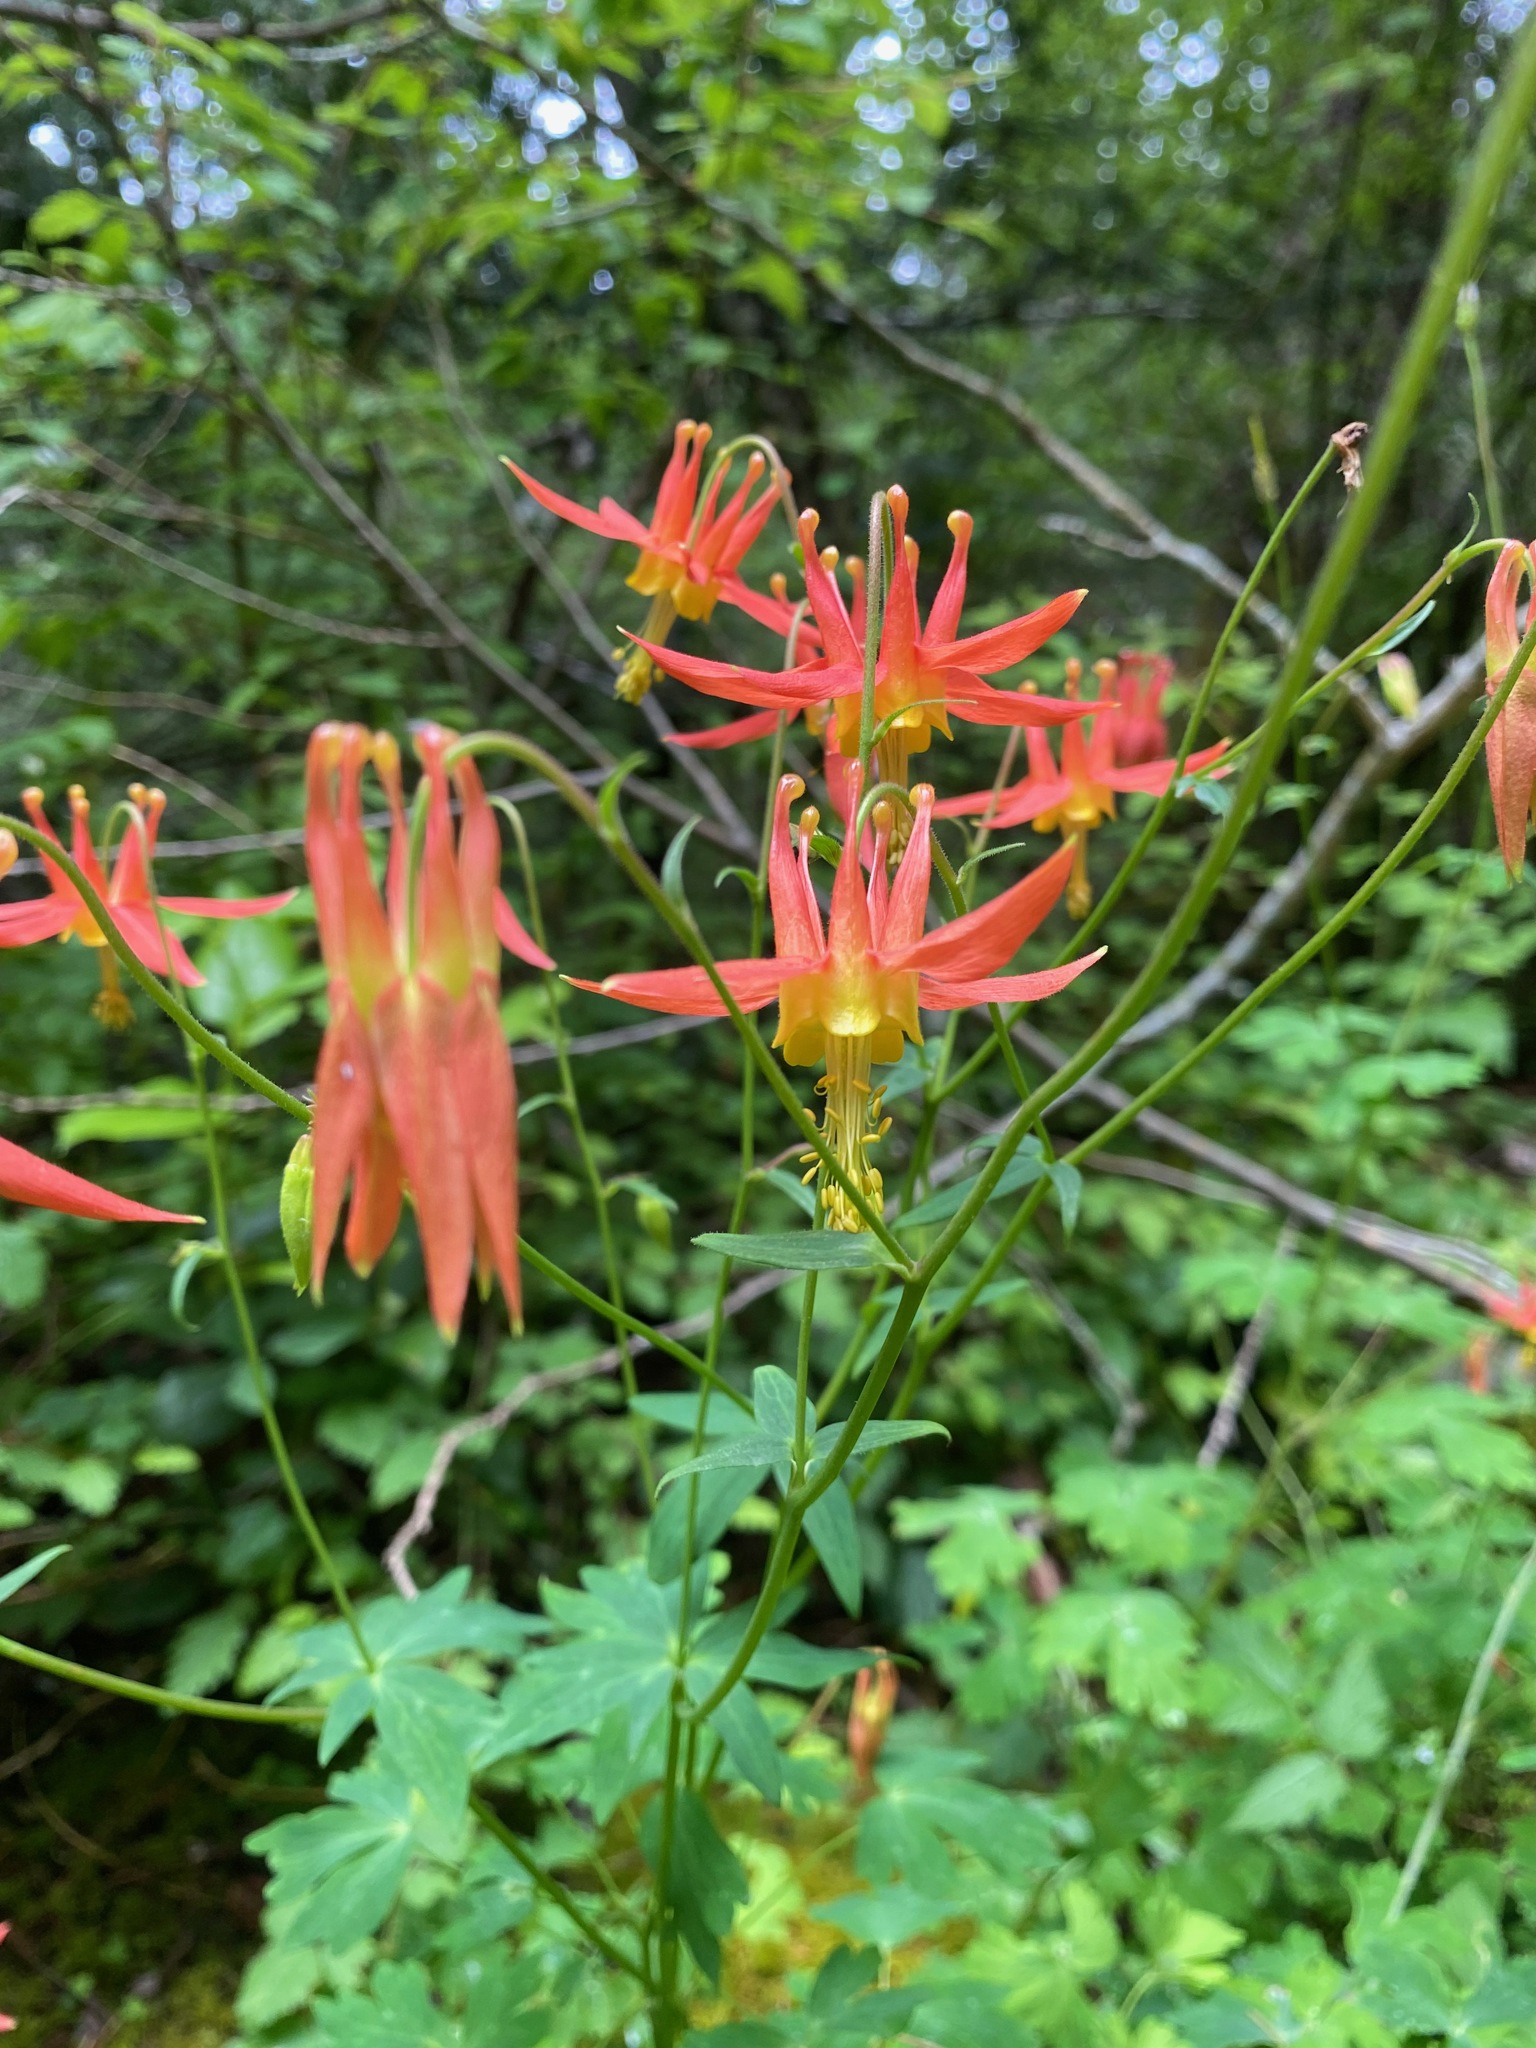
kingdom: Plantae
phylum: Tracheophyta
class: Magnoliopsida
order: Ranunculales
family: Ranunculaceae
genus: Aquilegia
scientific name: Aquilegia formosa
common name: Sitka columbine
